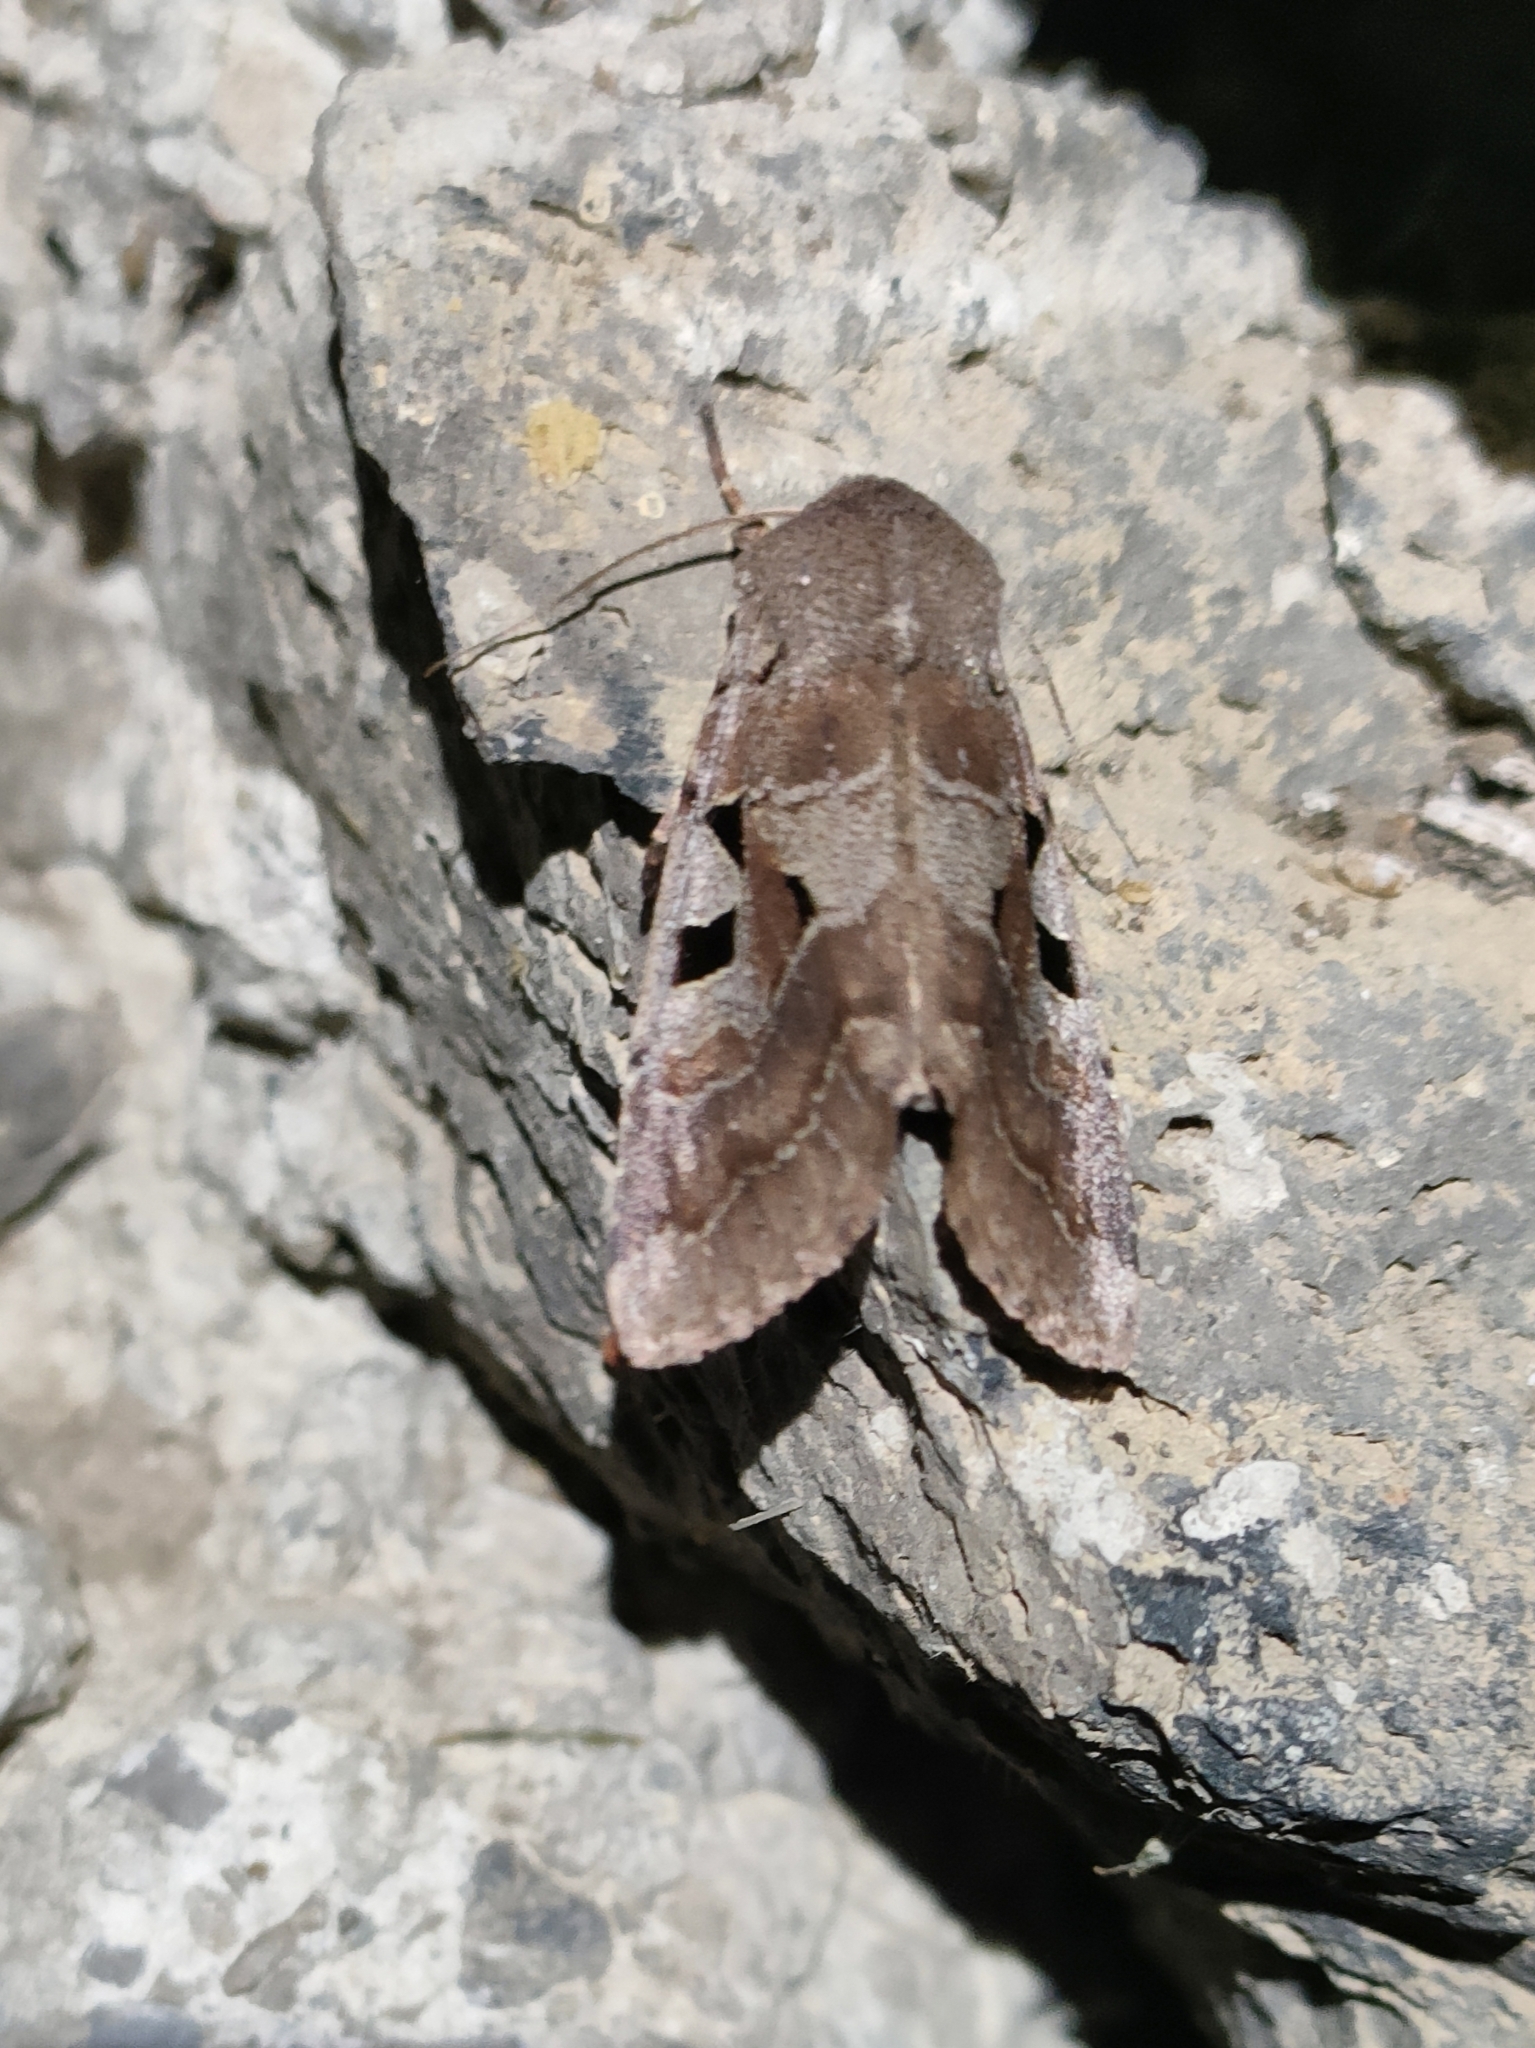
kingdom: Animalia
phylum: Arthropoda
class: Insecta
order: Lepidoptera
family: Noctuidae
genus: Orthosia
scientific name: Orthosia gothica
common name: Hebrew character
